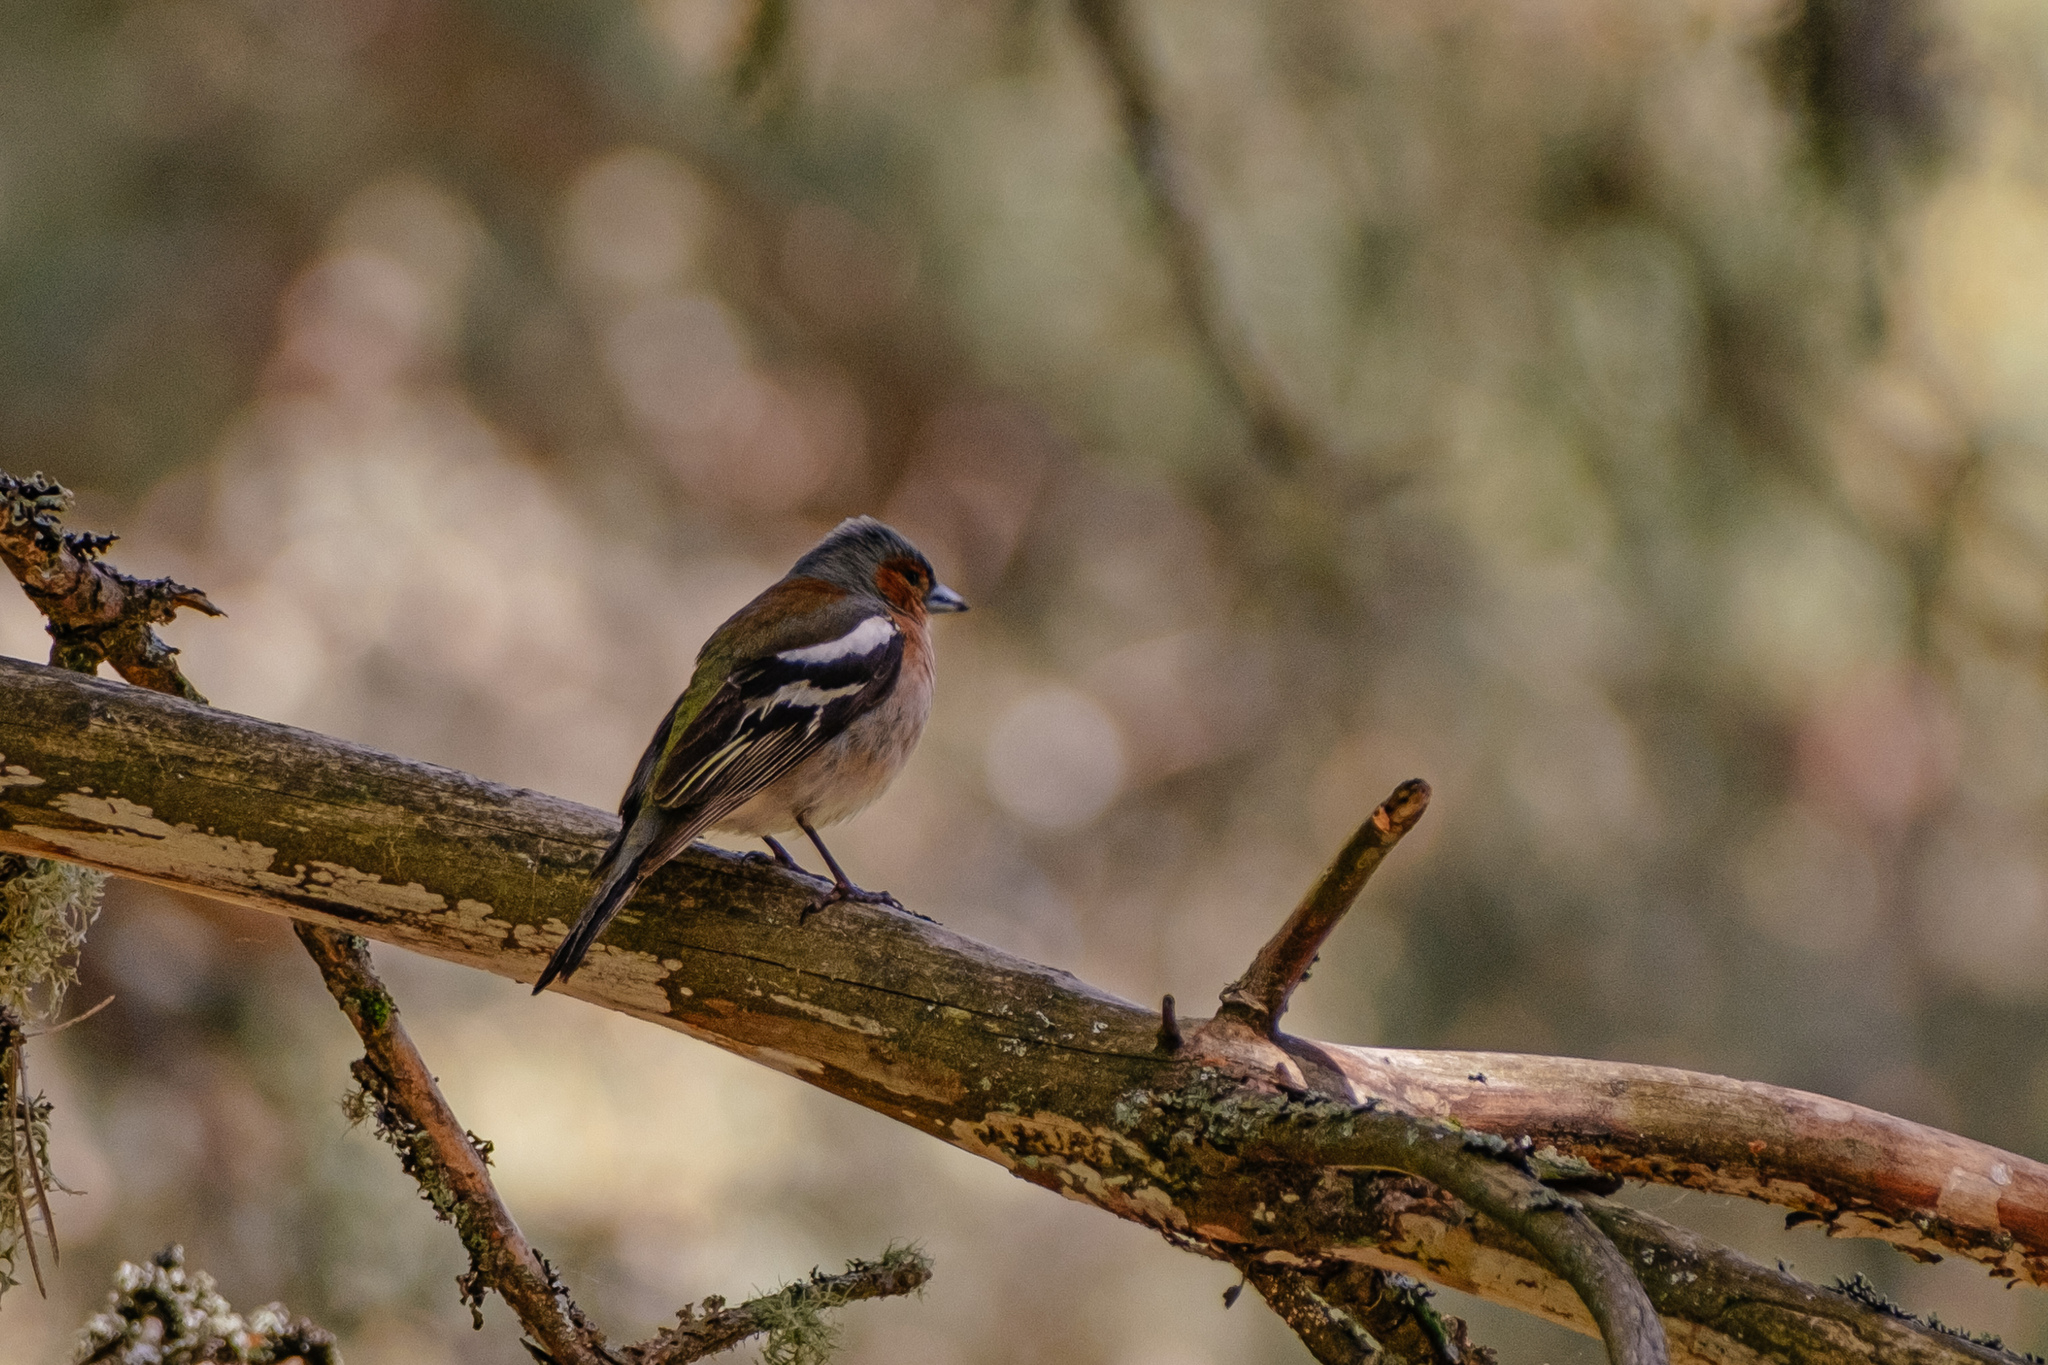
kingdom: Animalia
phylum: Chordata
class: Aves
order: Passeriformes
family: Fringillidae
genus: Fringilla
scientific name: Fringilla coelebs
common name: Common chaffinch
